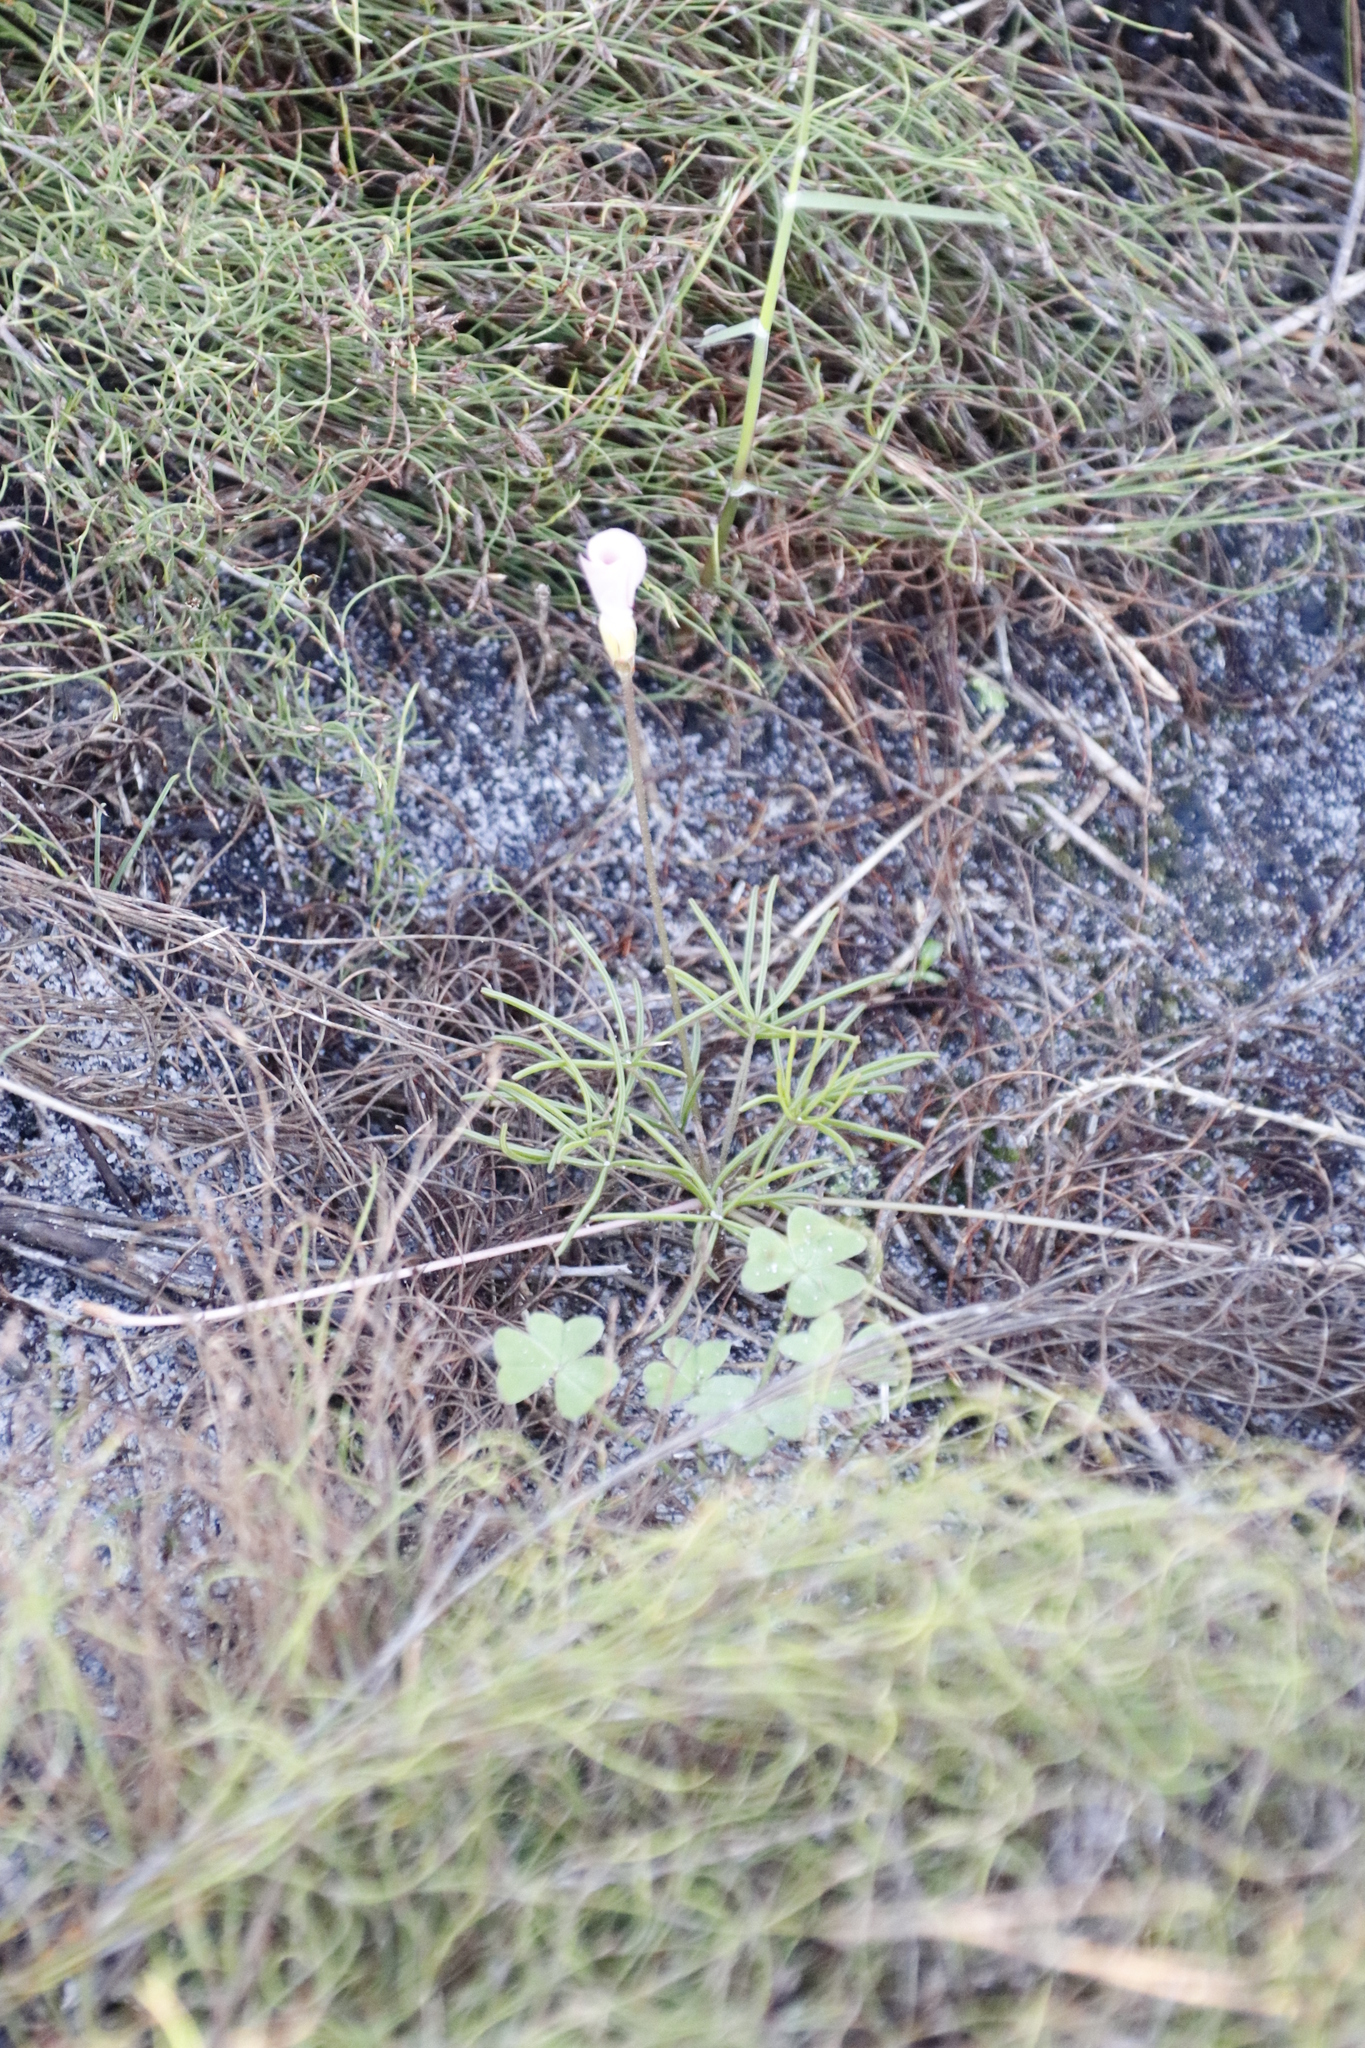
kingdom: Plantae
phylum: Tracheophyta
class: Magnoliopsida
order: Oxalidales
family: Oxalidaceae
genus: Oxalis
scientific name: Oxalis polyphylla
